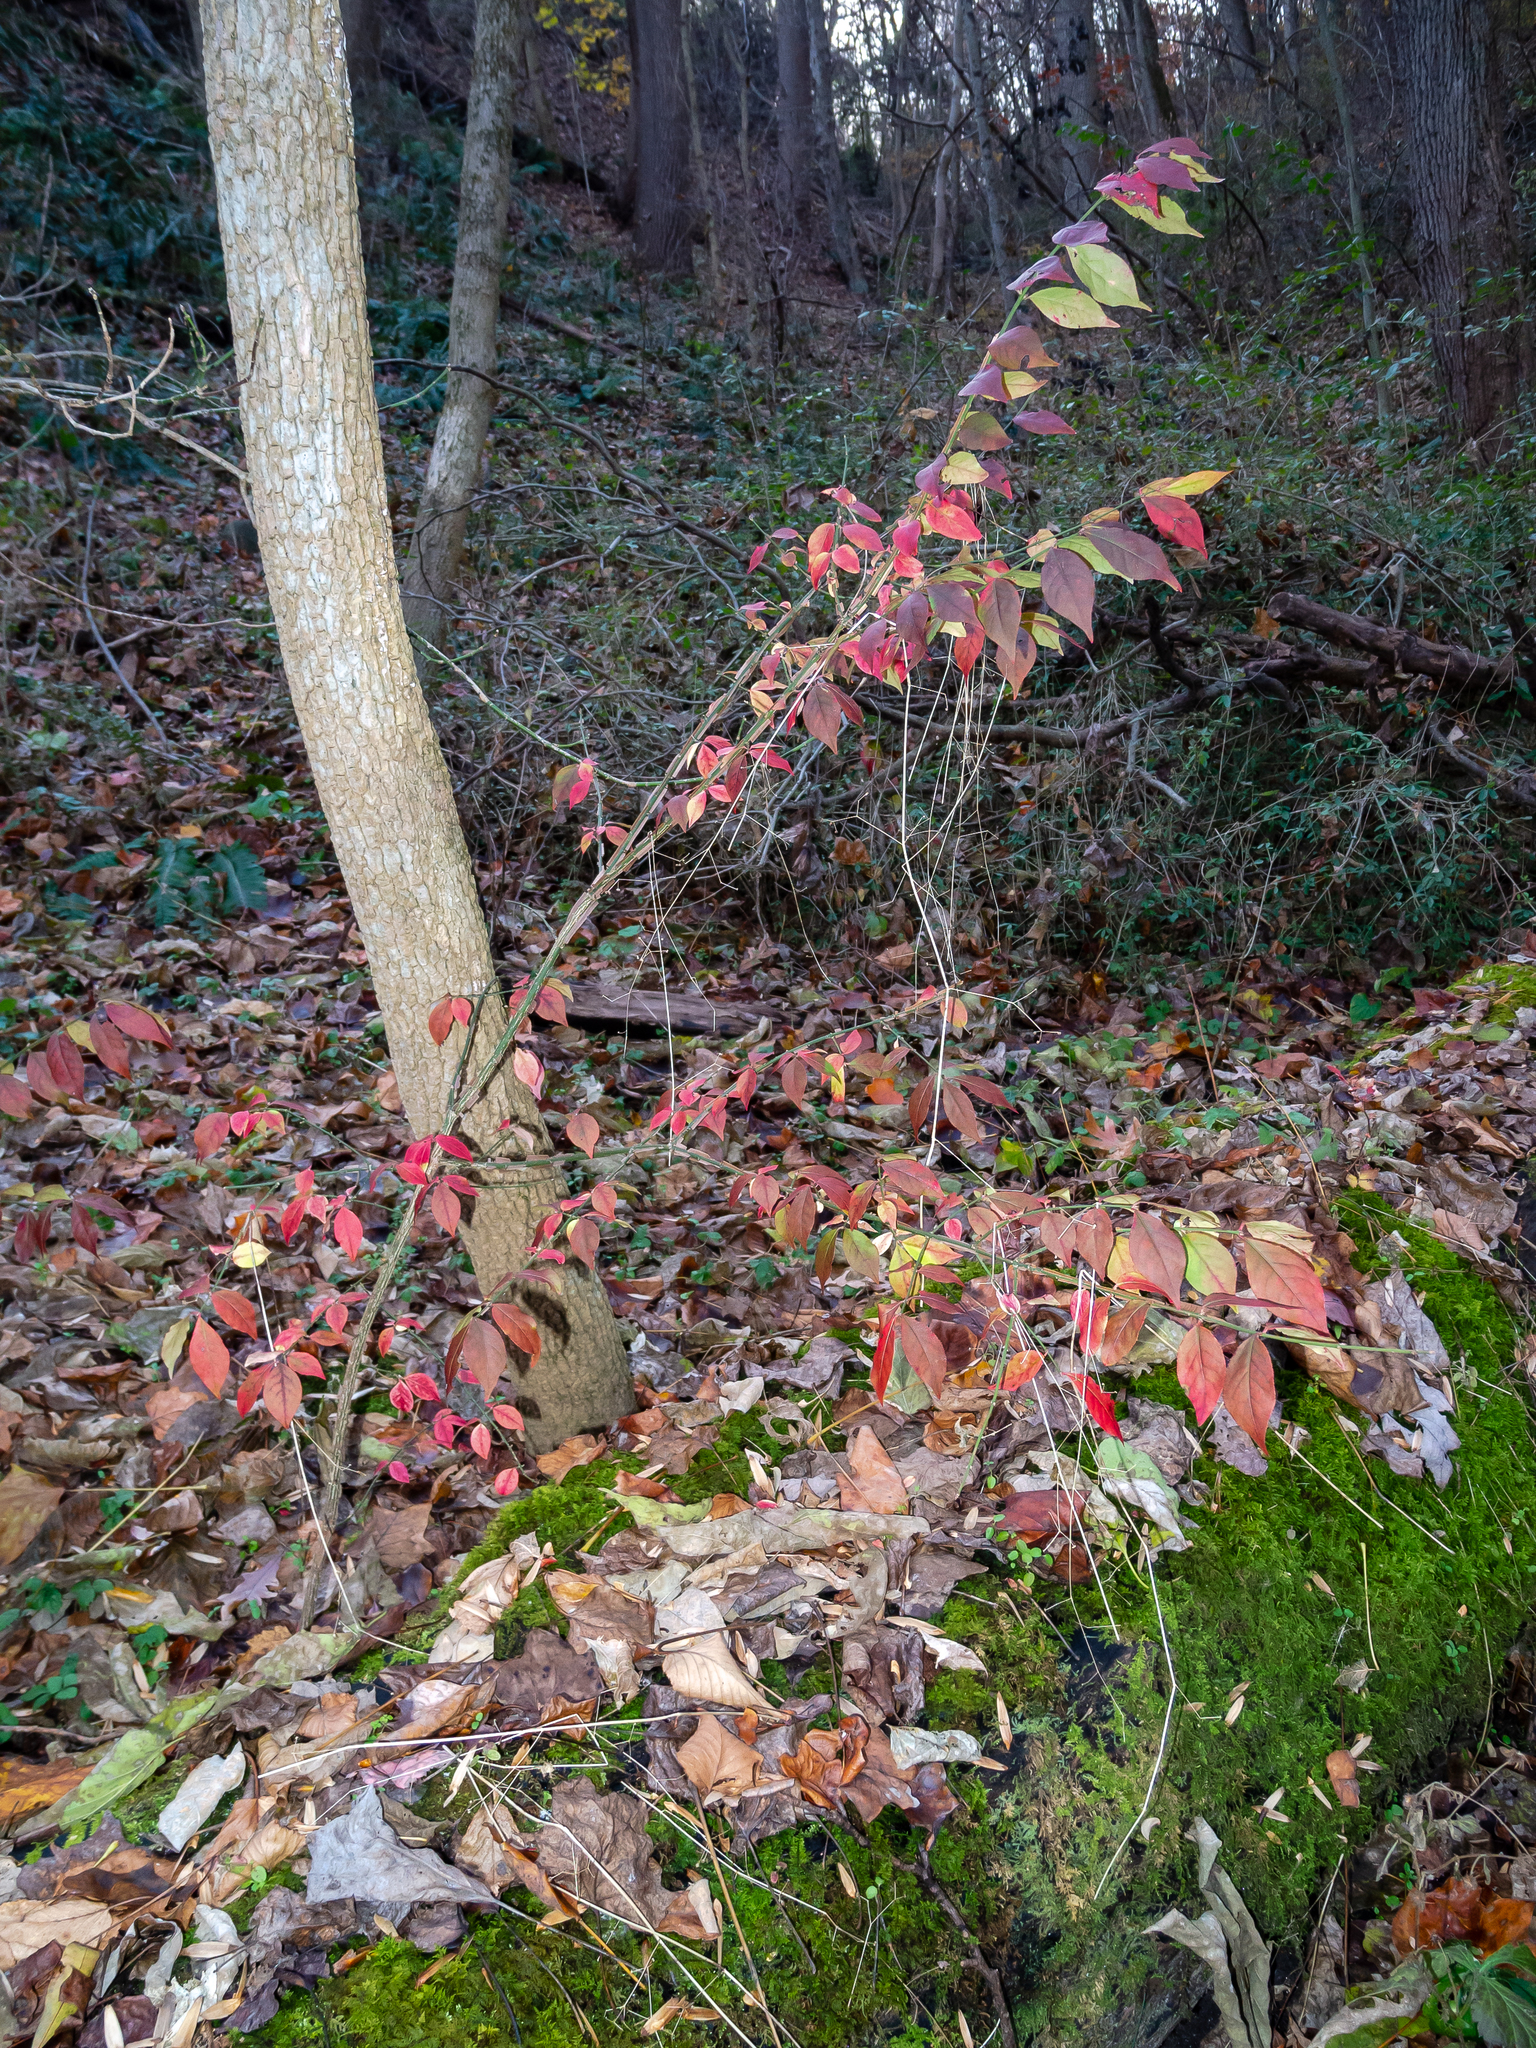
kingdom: Plantae
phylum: Tracheophyta
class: Magnoliopsida
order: Celastrales
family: Celastraceae
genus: Euonymus
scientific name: Euonymus alatus
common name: Winged euonymus
